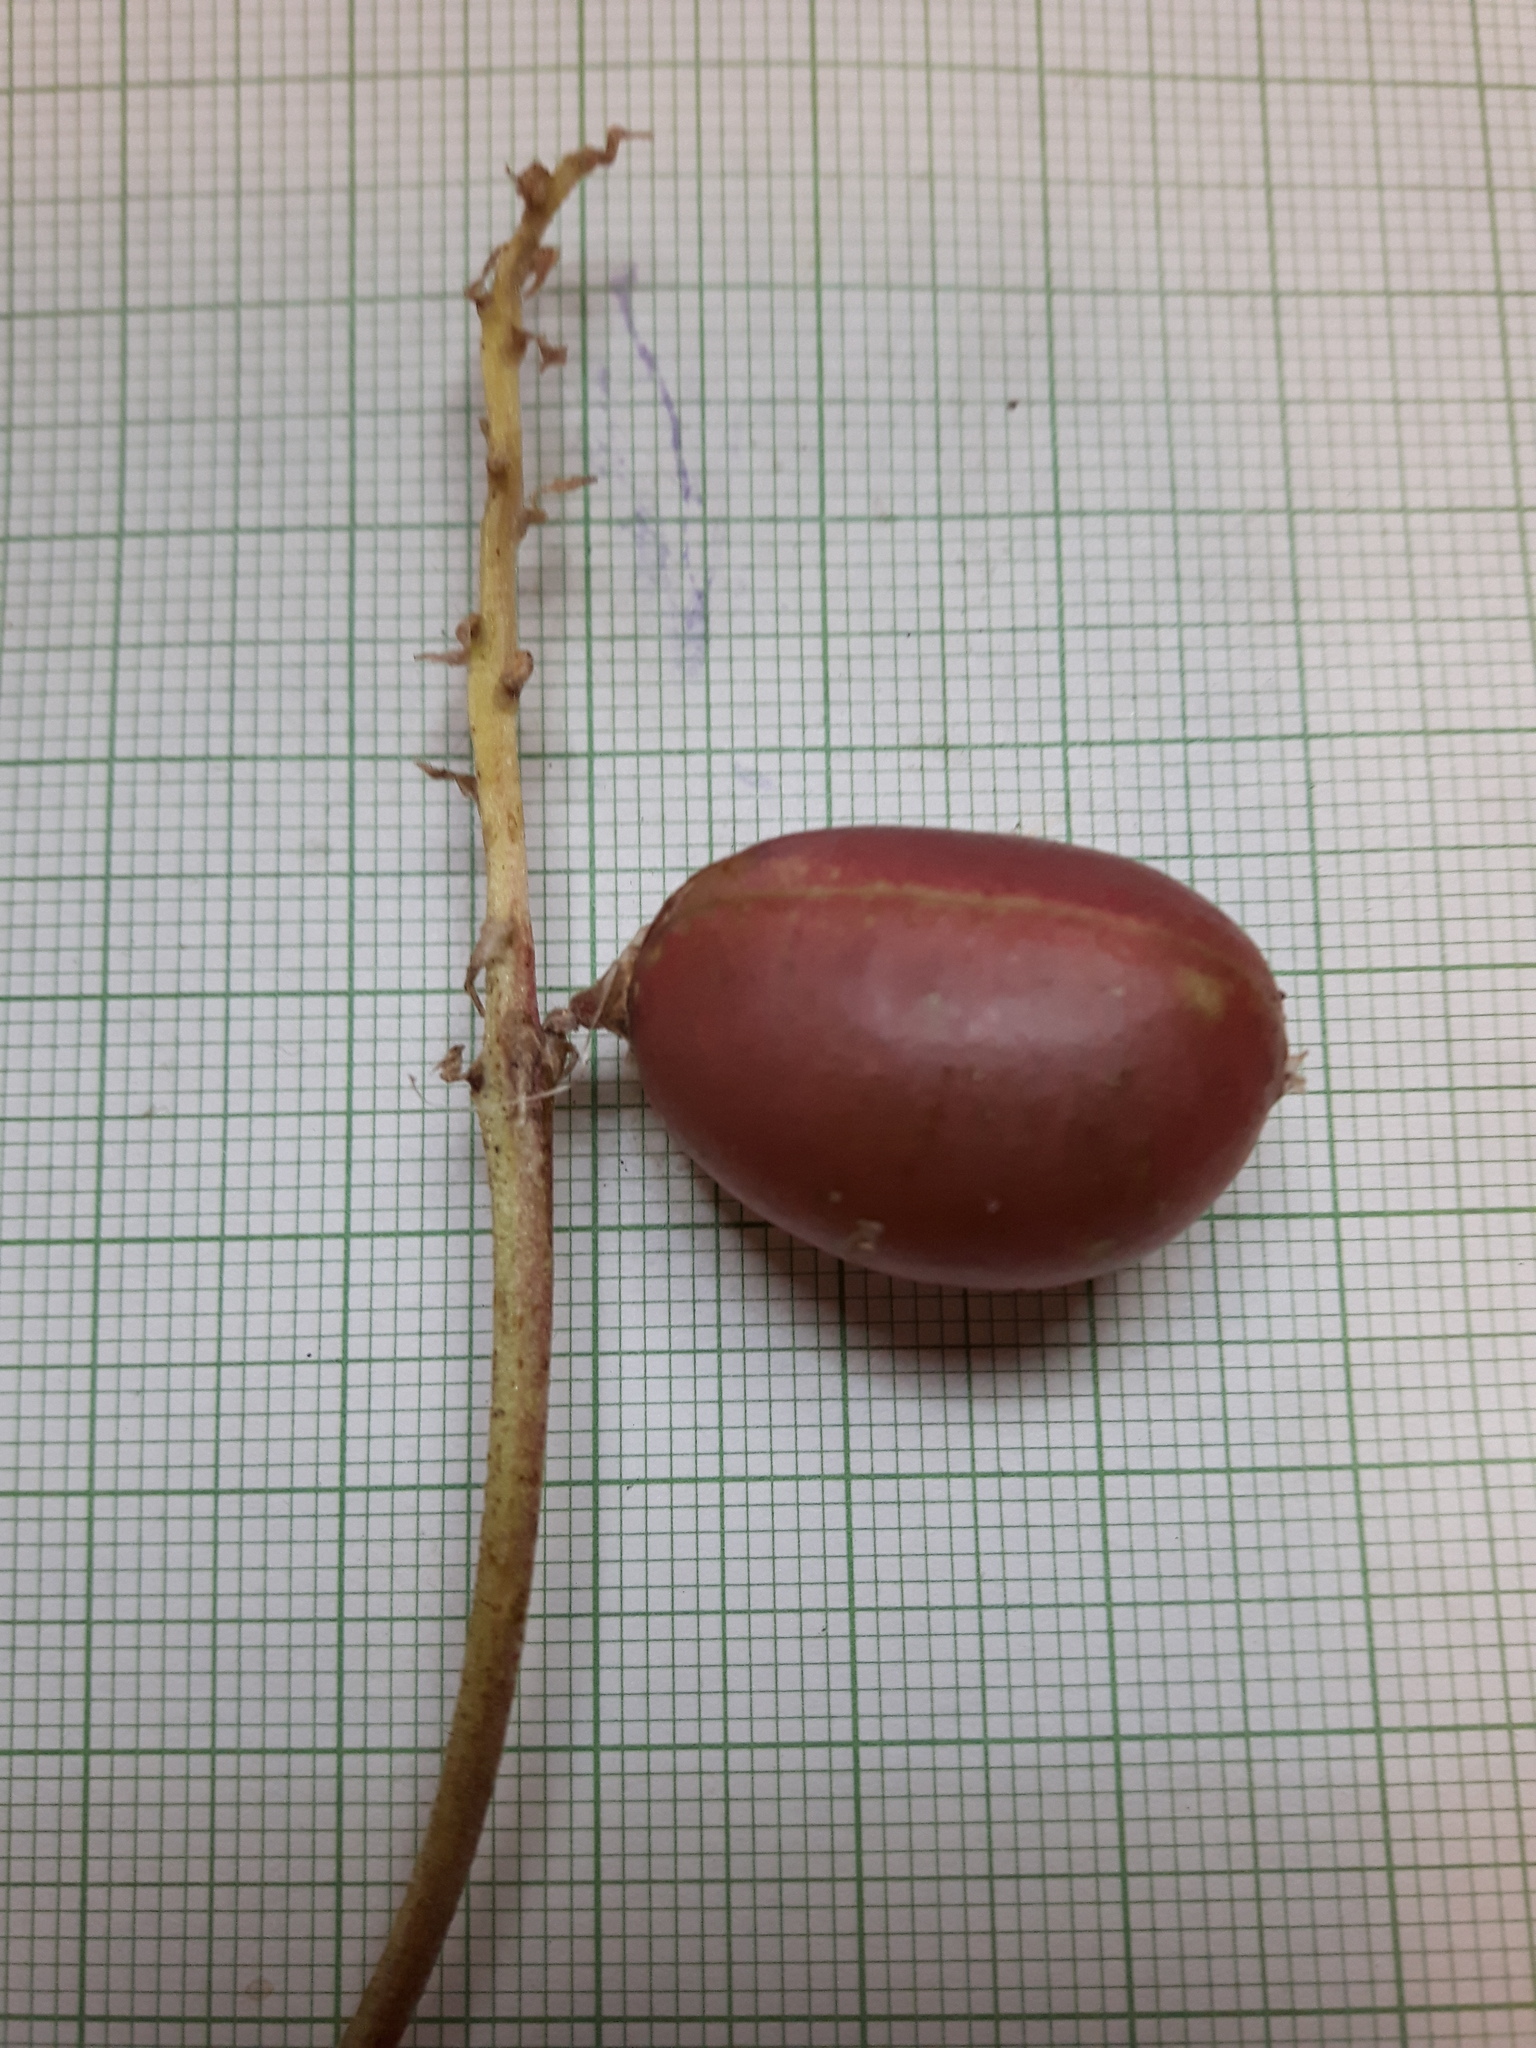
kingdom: Plantae
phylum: Tracheophyta
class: Magnoliopsida
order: Fabales
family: Fabaceae
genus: Astragalus
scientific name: Astragalus crassicarpus
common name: Ground-plum milk-vetch
